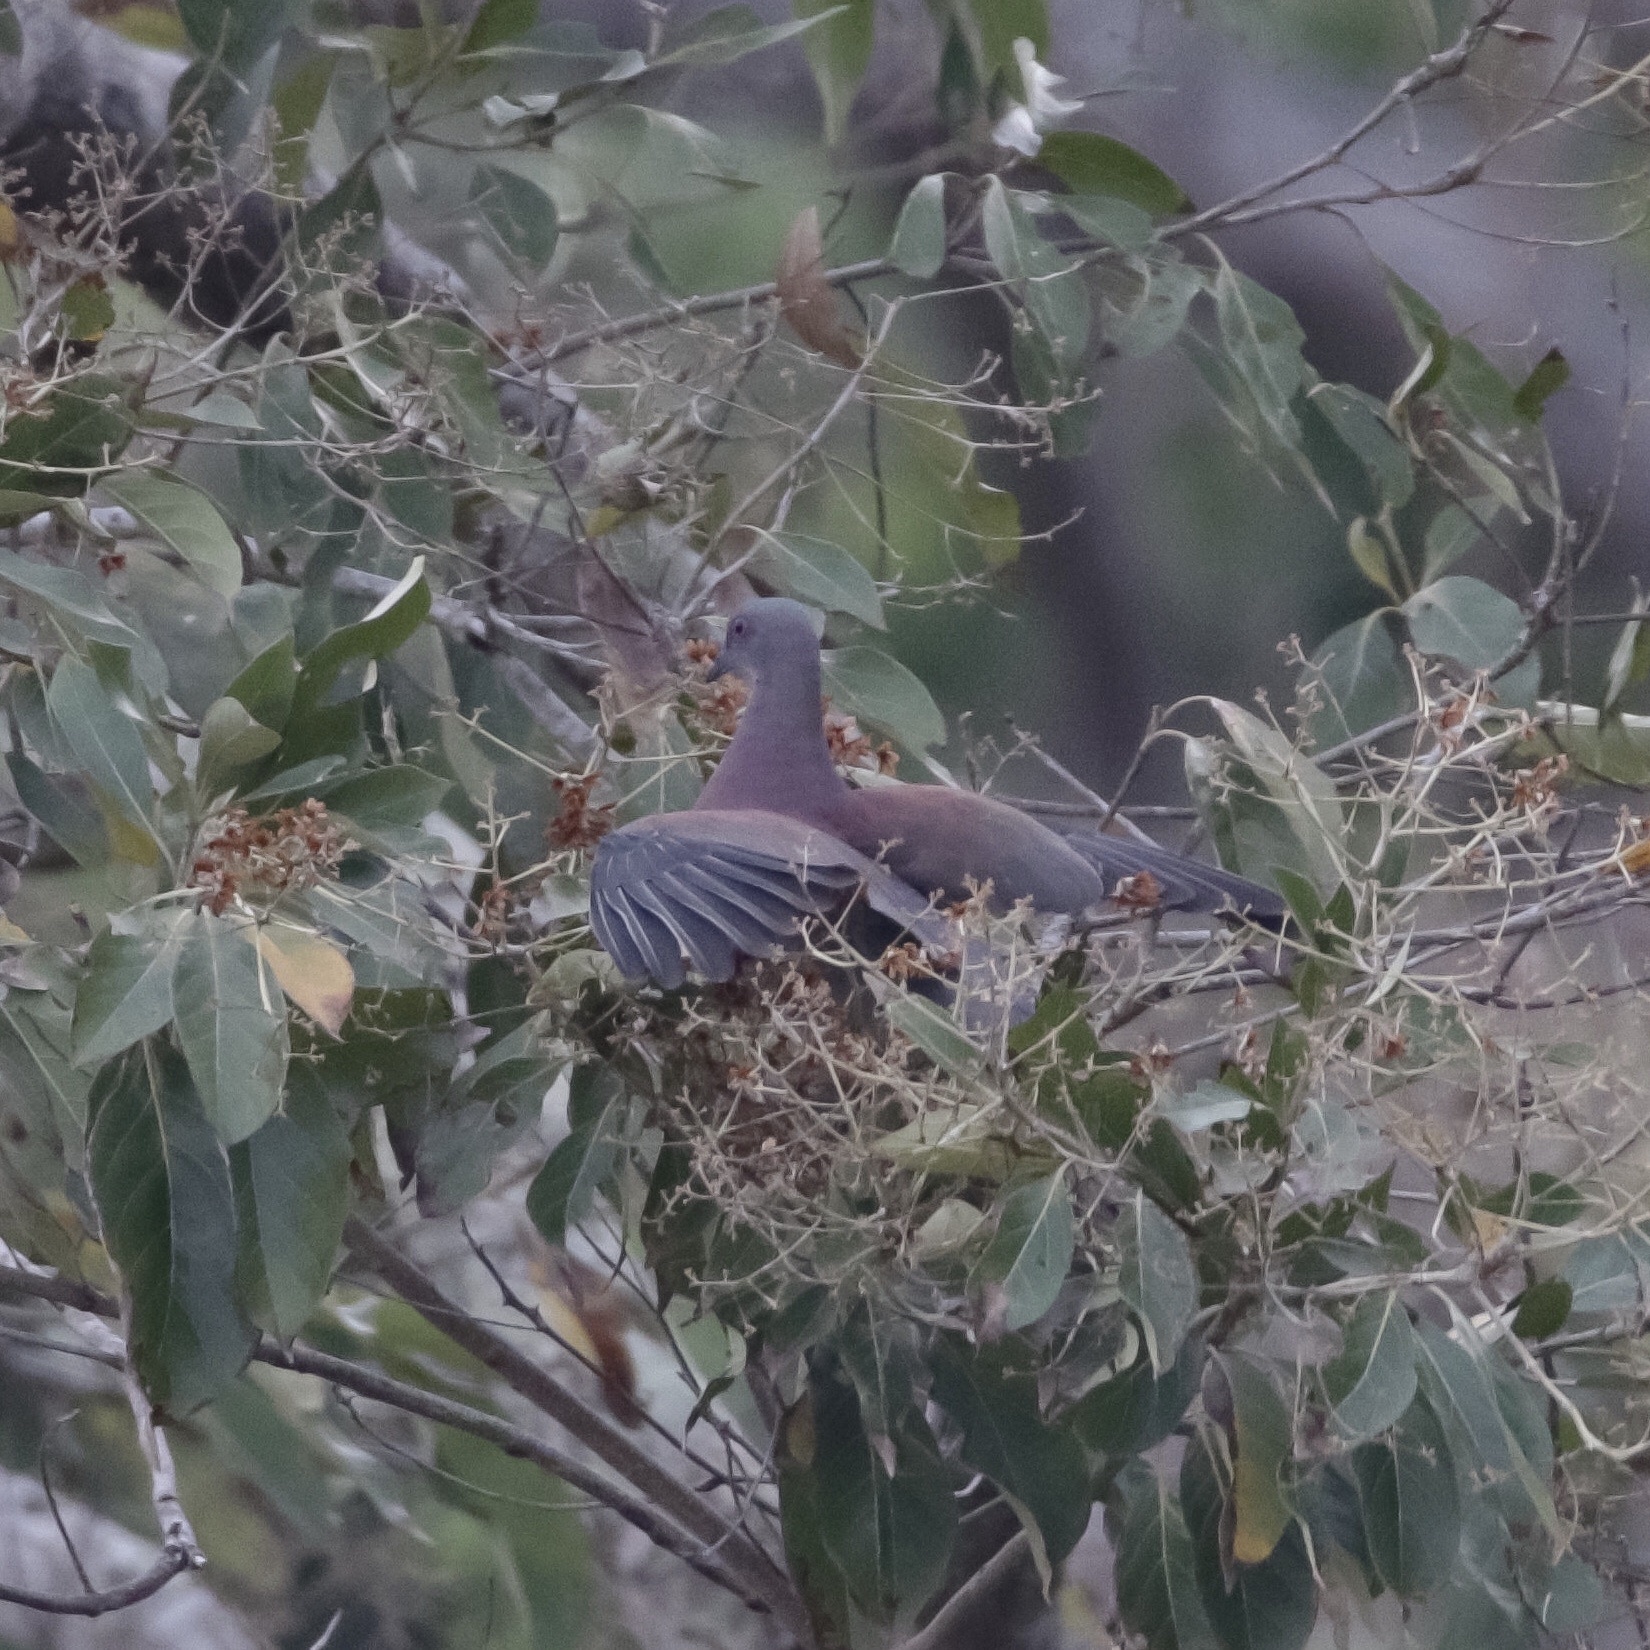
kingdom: Animalia
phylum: Chordata
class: Aves
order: Columbiformes
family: Columbidae
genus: Patagioenas
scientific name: Patagioenas cayennensis
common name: Pale-vented pigeon
